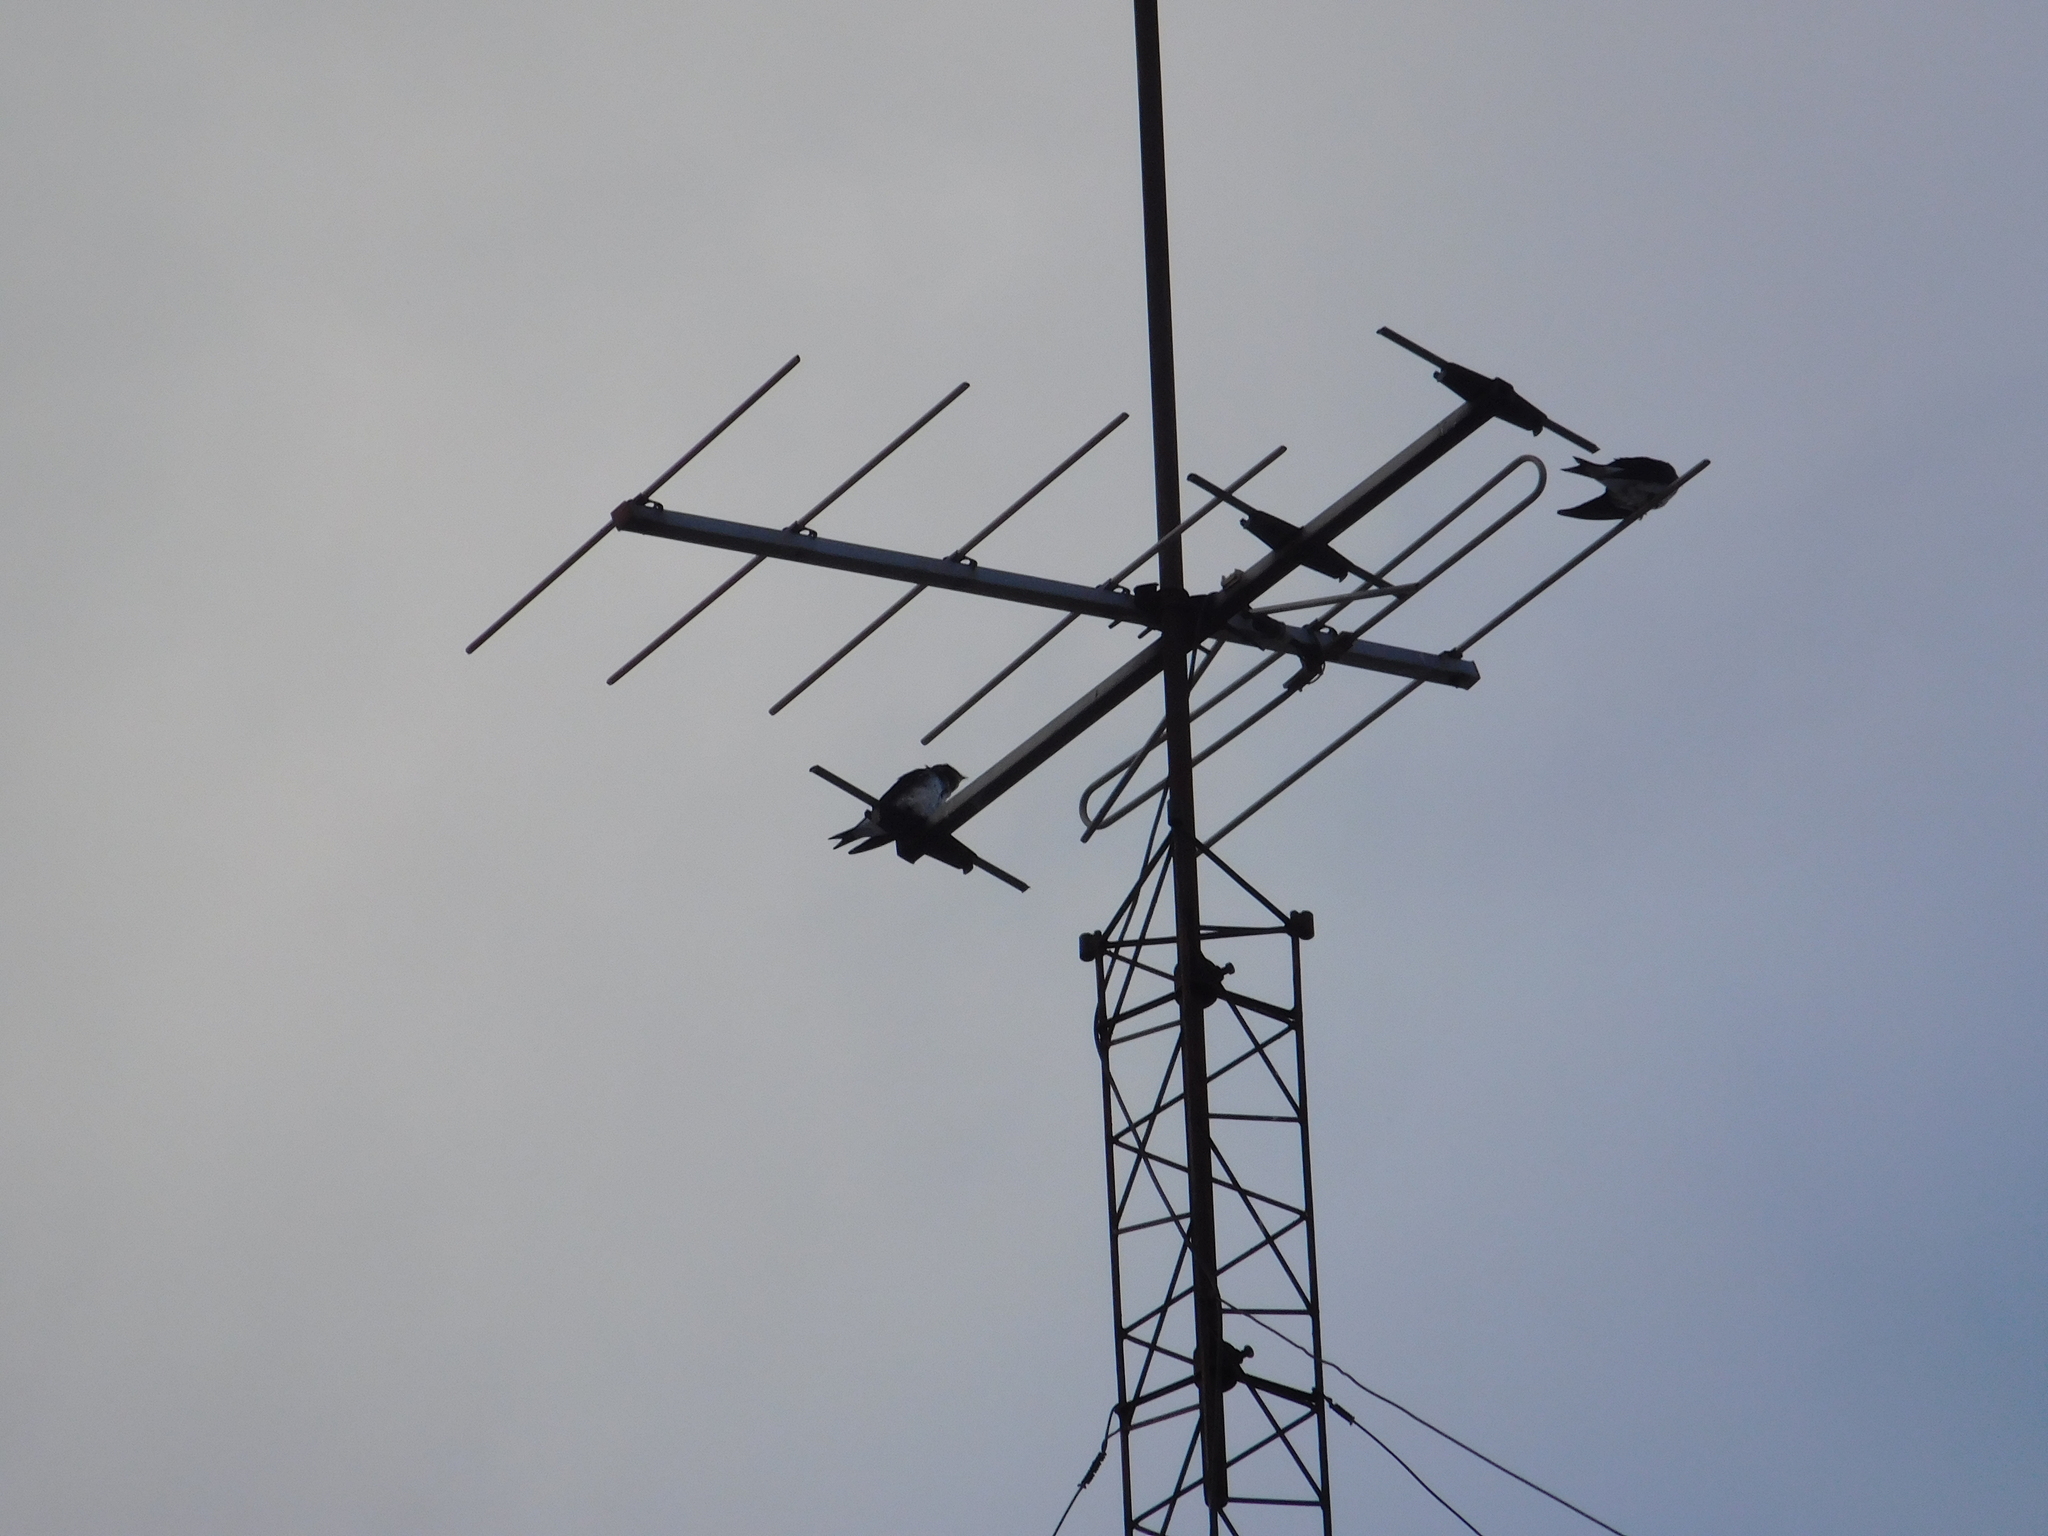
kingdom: Animalia
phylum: Chordata
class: Aves
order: Passeriformes
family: Hirundinidae
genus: Progne
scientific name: Progne chalybea
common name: Grey-breasted martin
